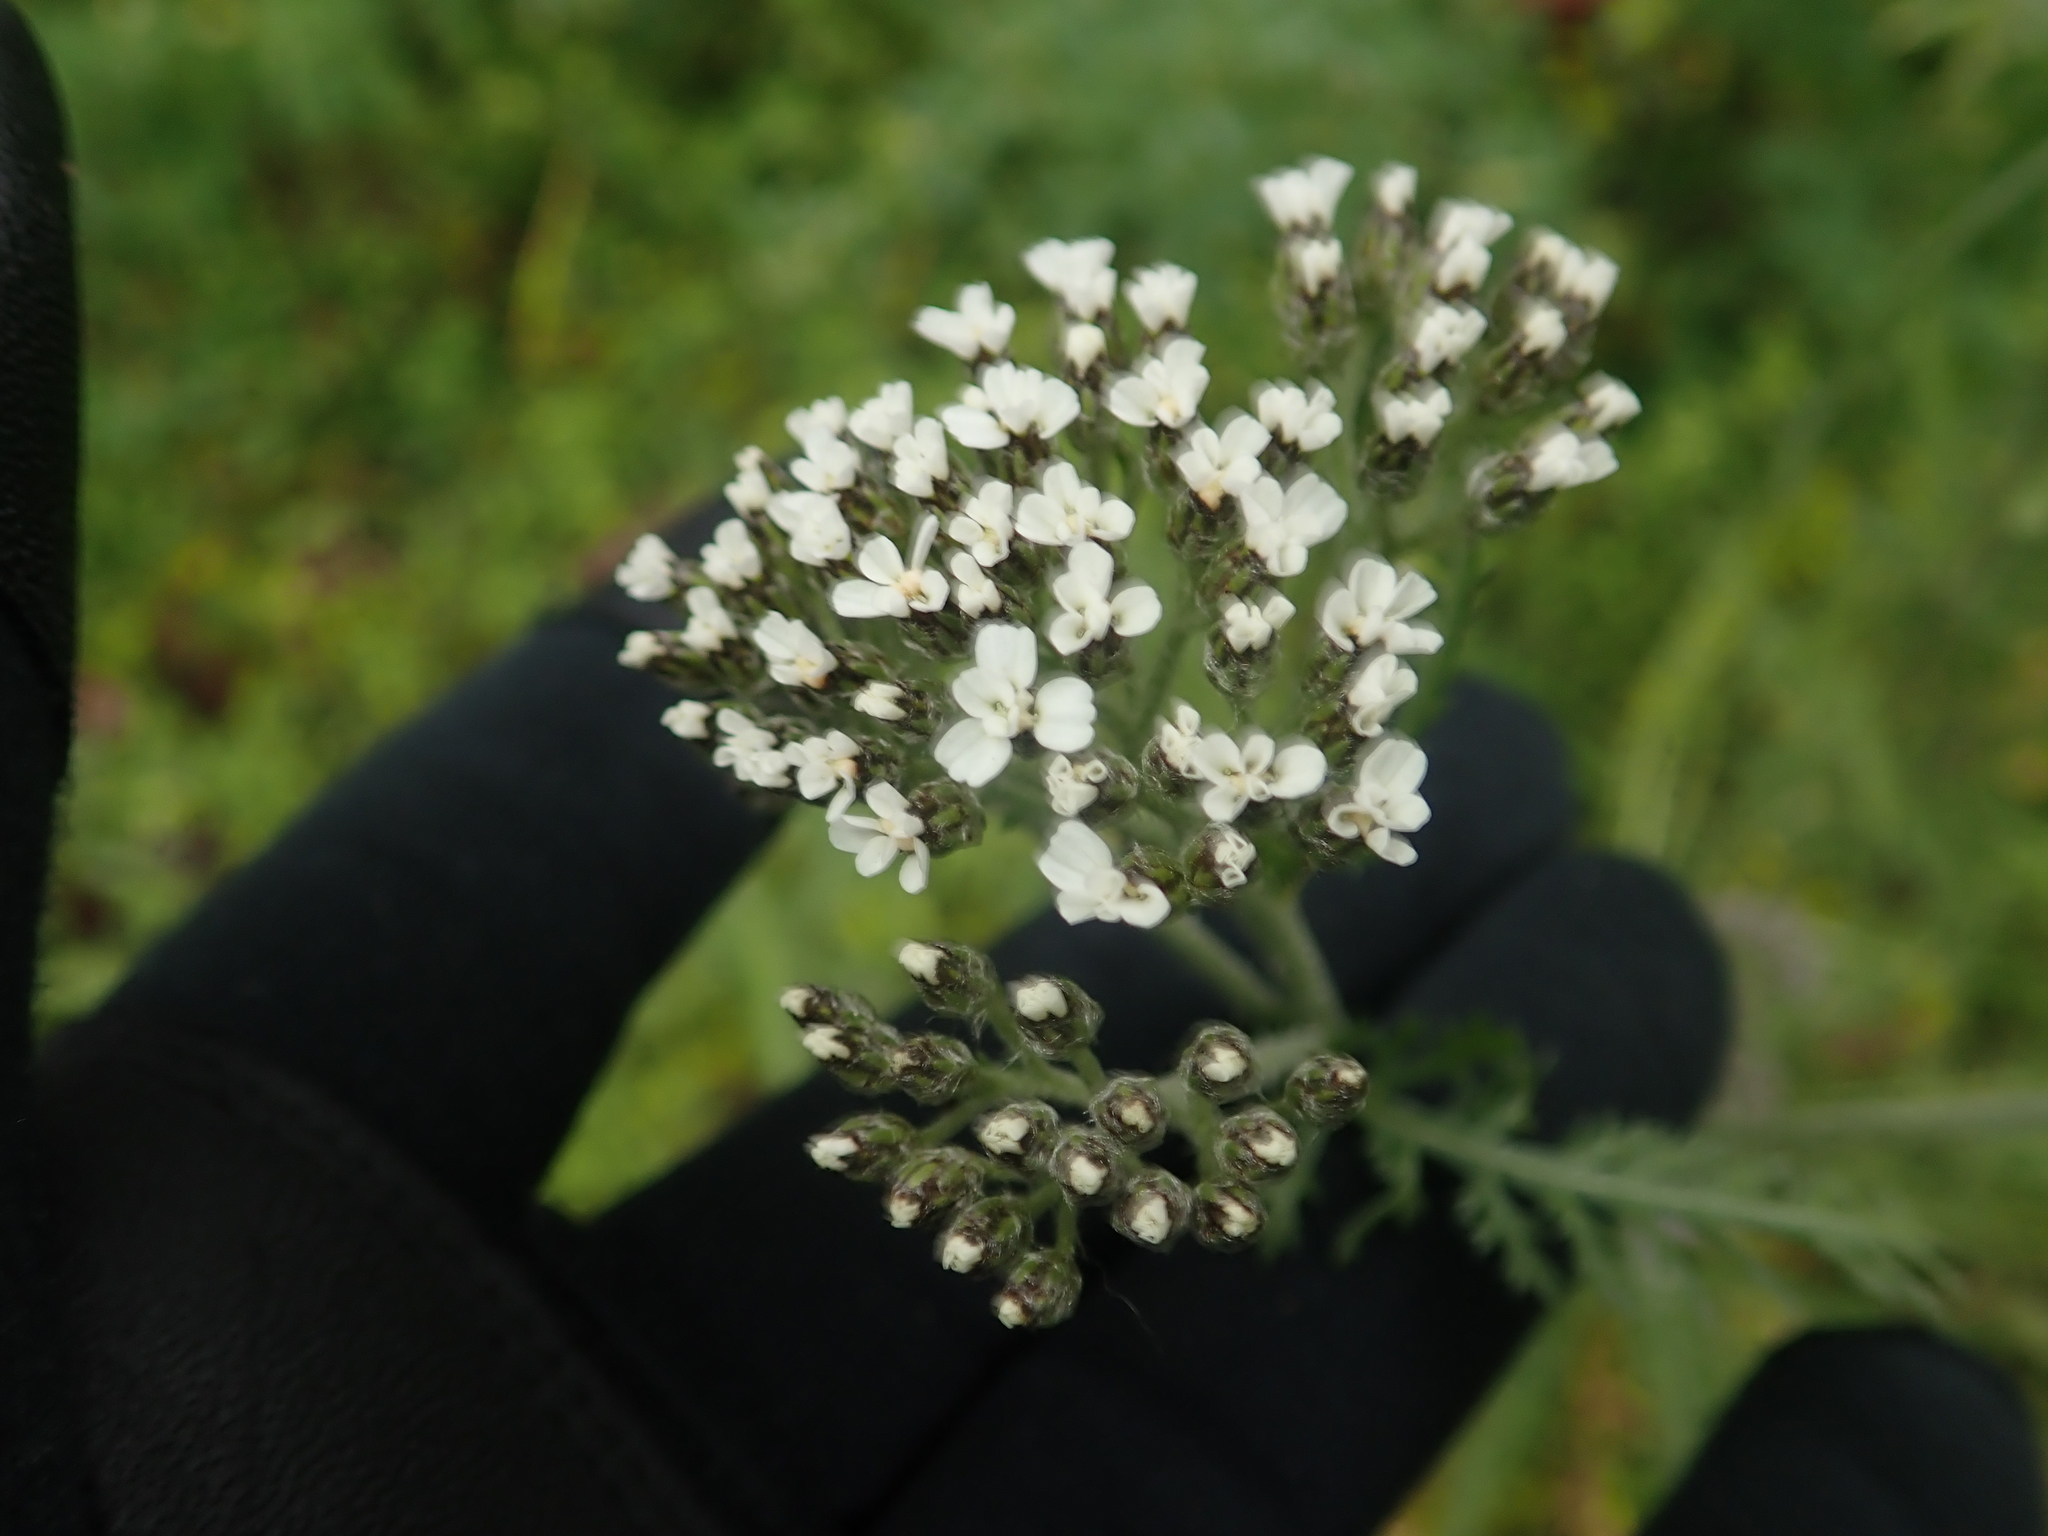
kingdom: Plantae
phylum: Tracheophyta
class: Magnoliopsida
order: Asterales
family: Asteraceae
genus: Achillea
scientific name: Achillea millefolium
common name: Yarrow
